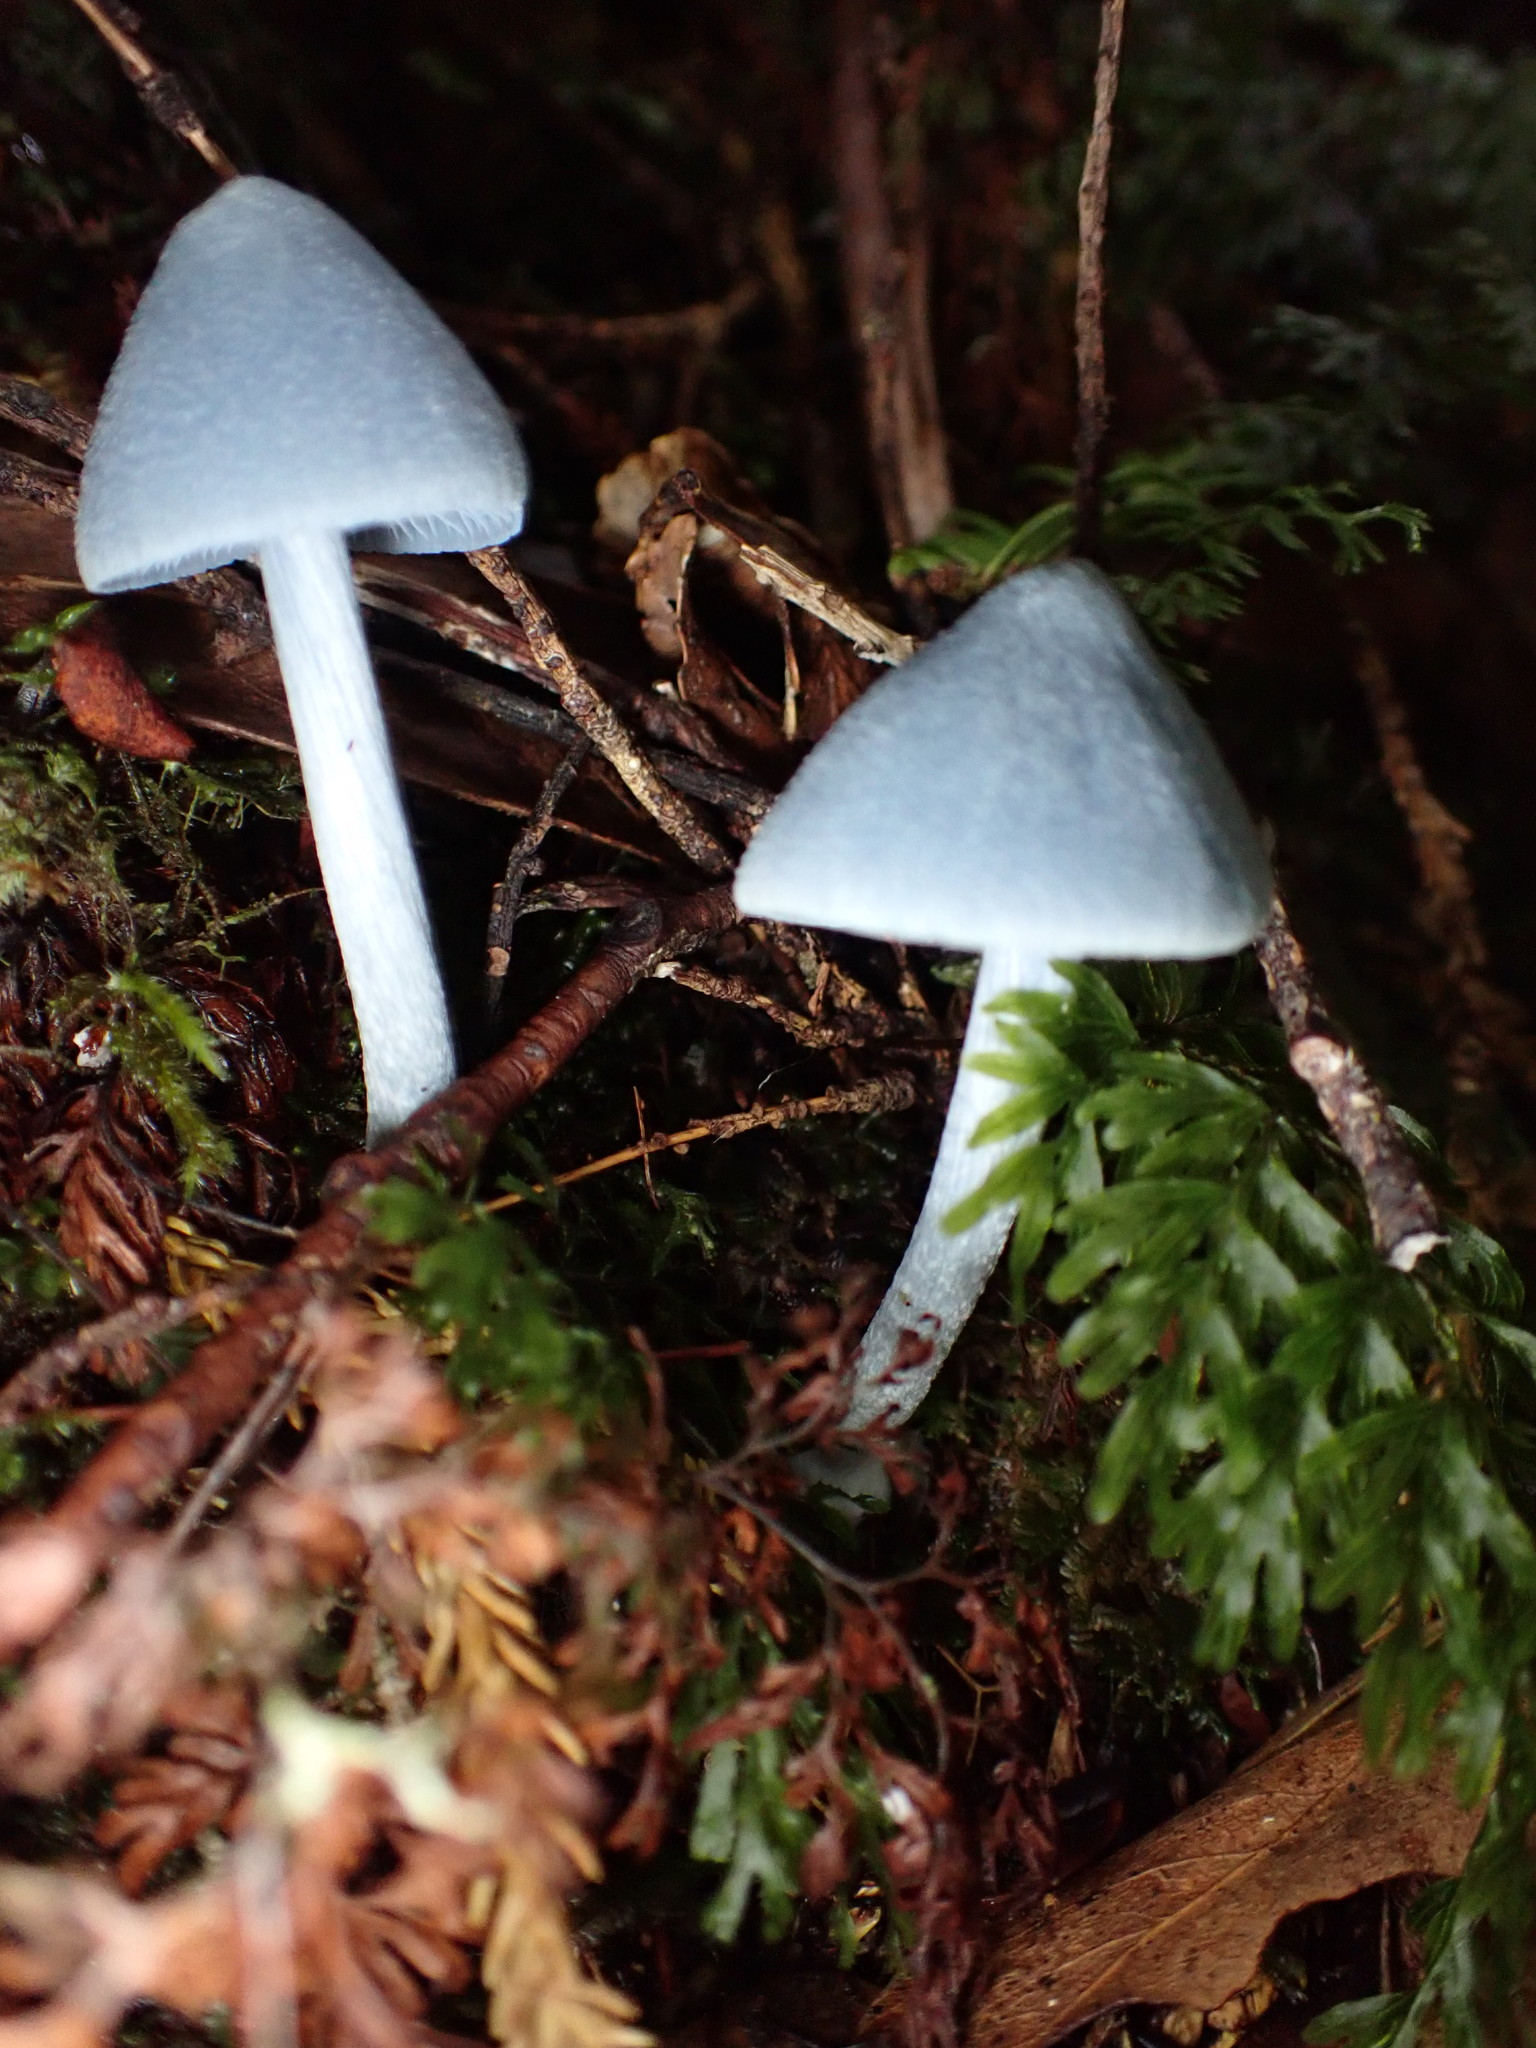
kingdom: Fungi
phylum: Basidiomycota
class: Agaricomycetes
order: Agaricales
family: Entolomataceae
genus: Entoloma
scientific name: Entoloma hochstetteri
